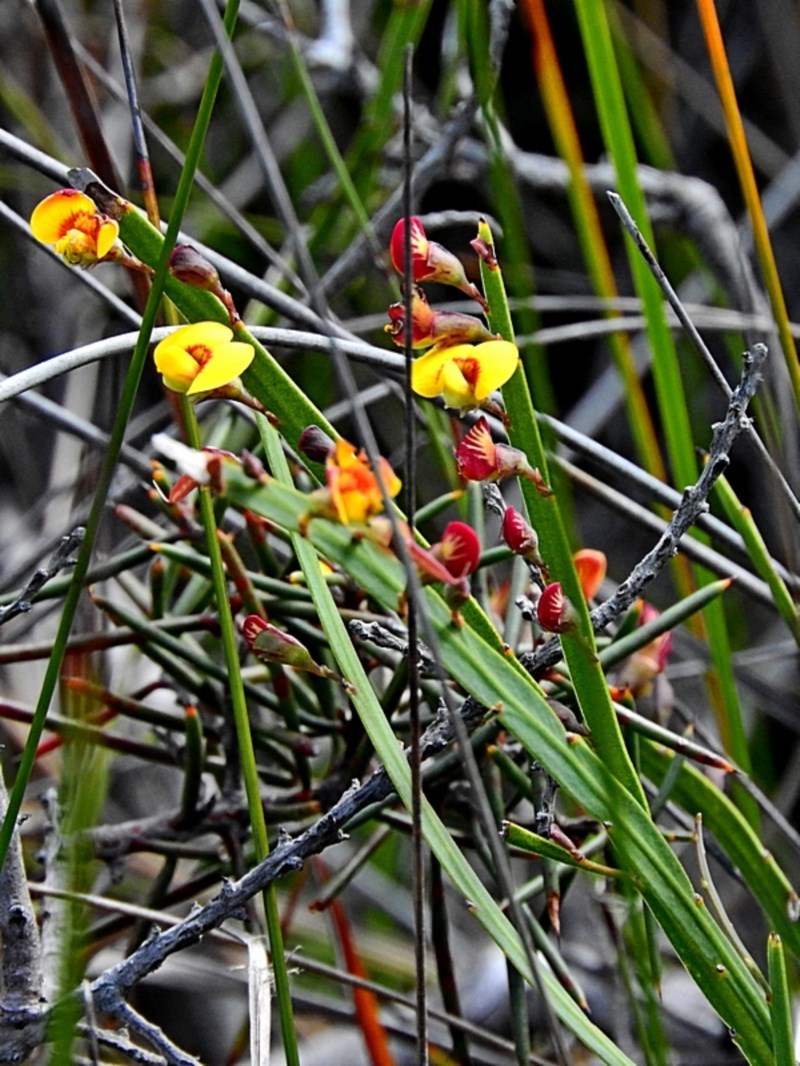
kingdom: Plantae
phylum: Tracheophyta
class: Magnoliopsida
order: Fabales
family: Fabaceae
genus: Bossiaea
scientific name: Bossiaea ensata
